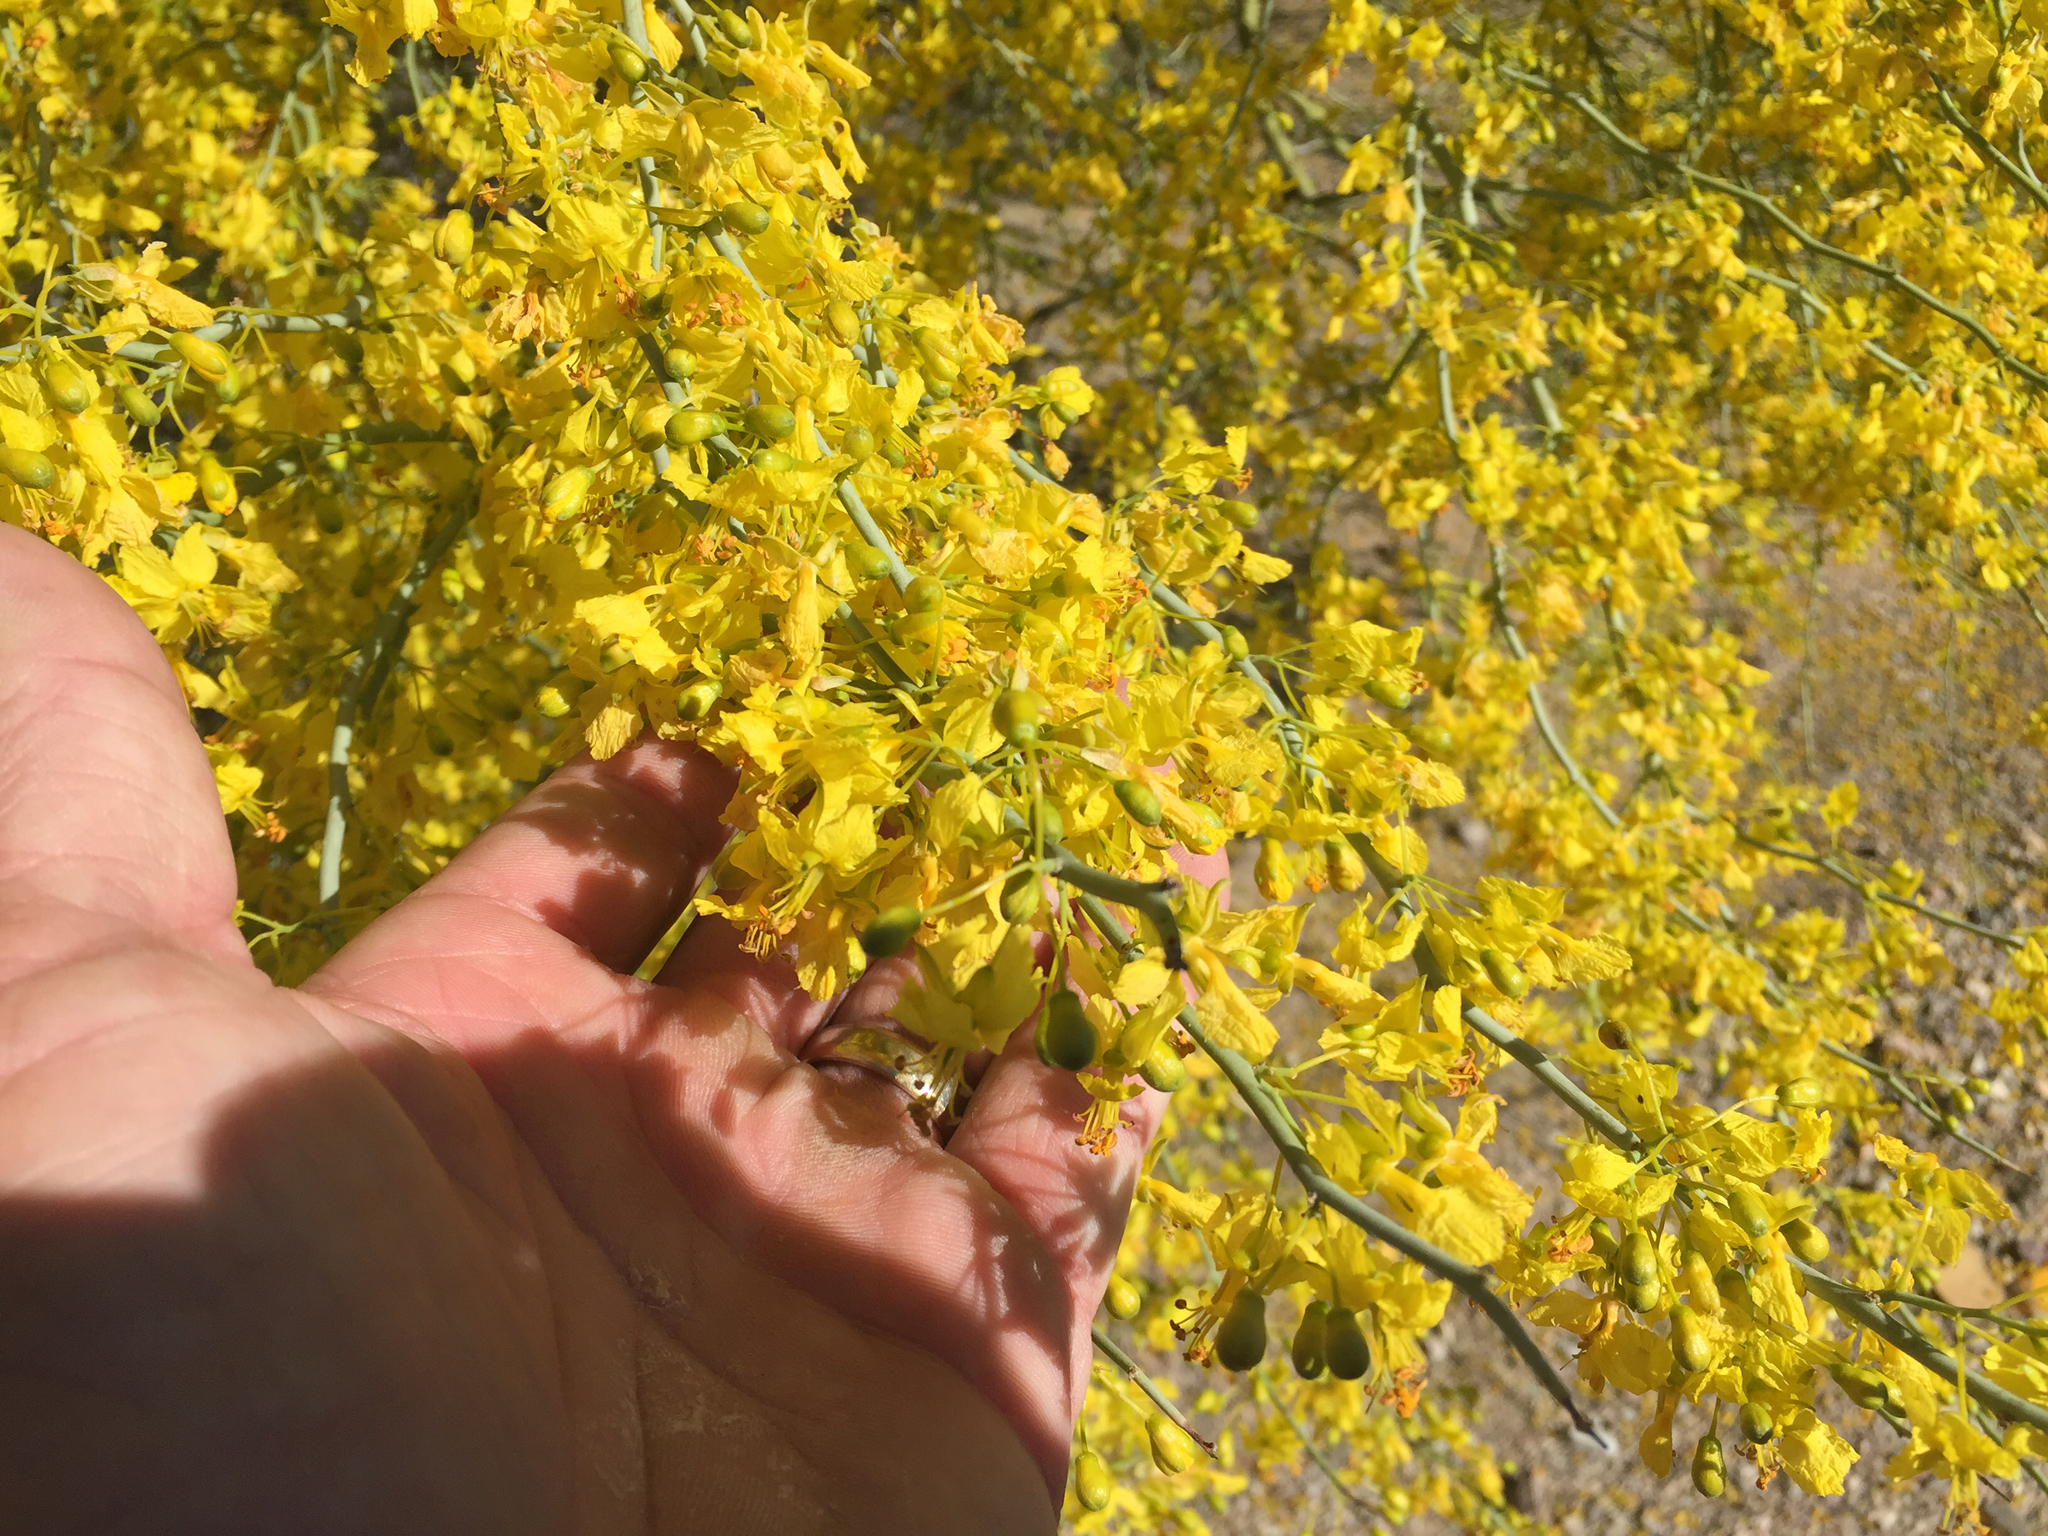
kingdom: Plantae
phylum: Tracheophyta
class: Magnoliopsida
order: Fabales
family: Fabaceae
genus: Parkinsonia
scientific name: Parkinsonia florida
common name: Blue paloverde
